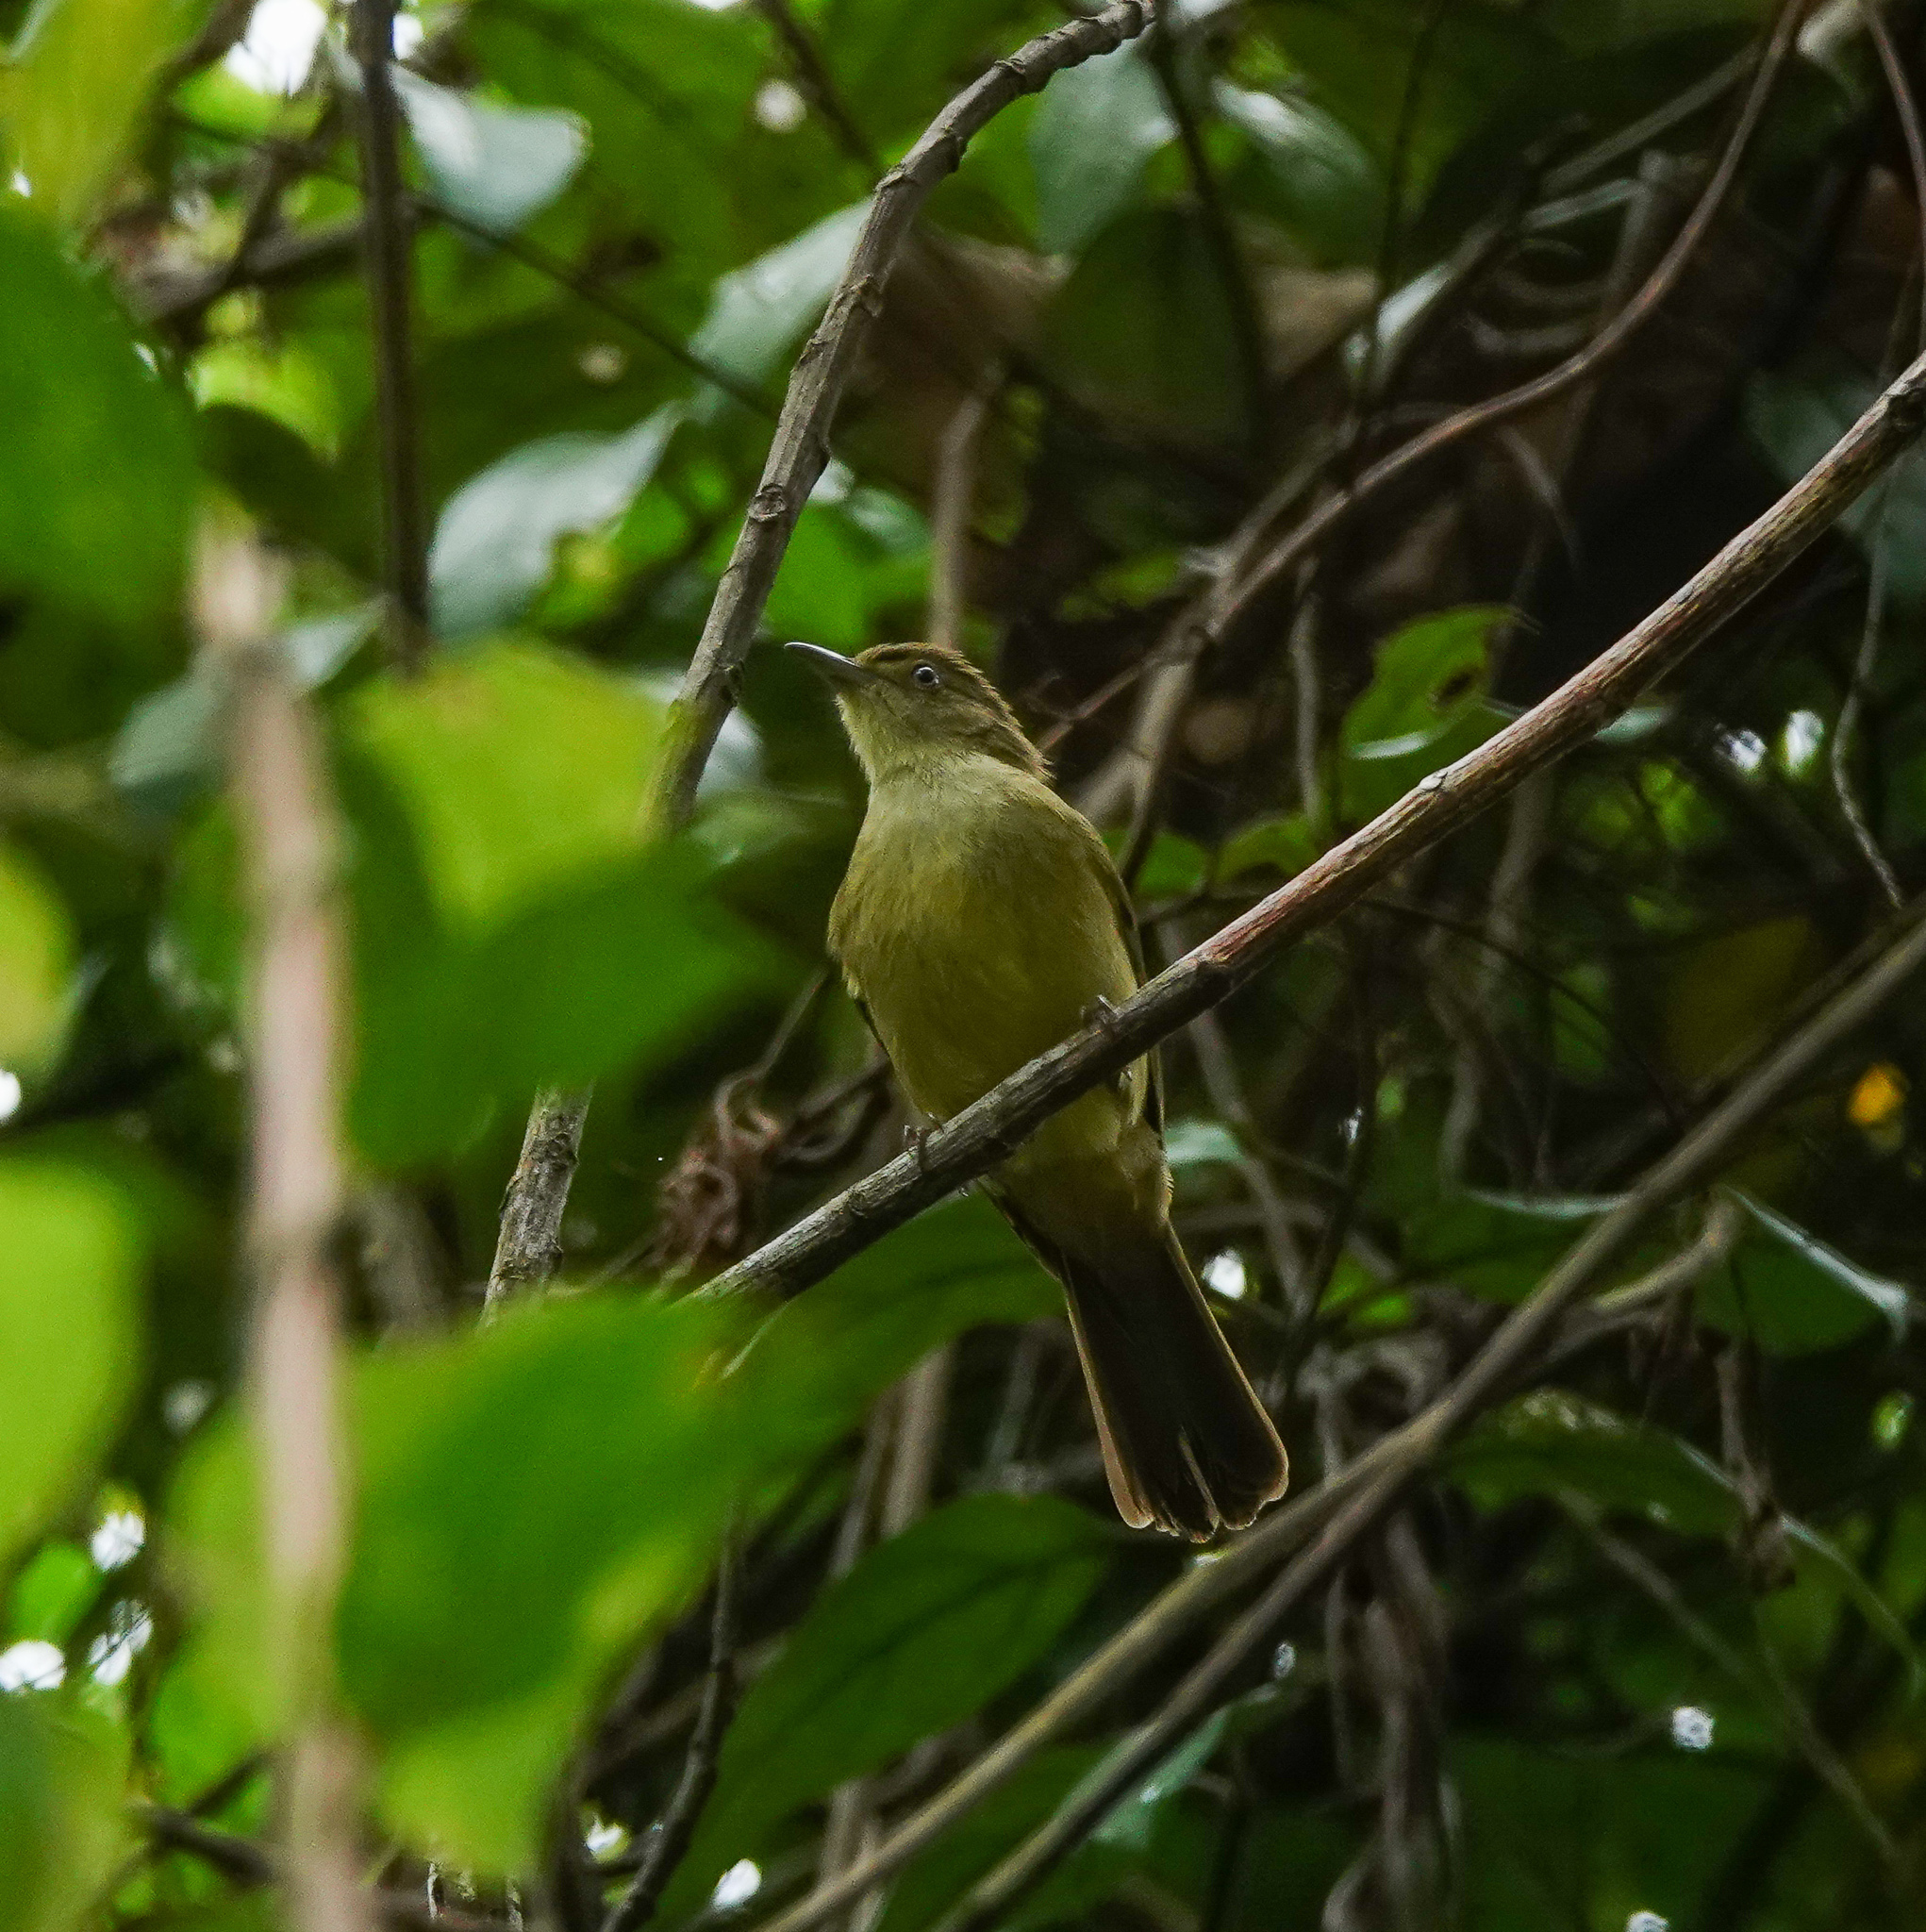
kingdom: Animalia
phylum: Chordata
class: Aves
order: Passeriformes
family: Pycnonotidae
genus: Iole
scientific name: Iole virescens
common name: Olive bulbul
